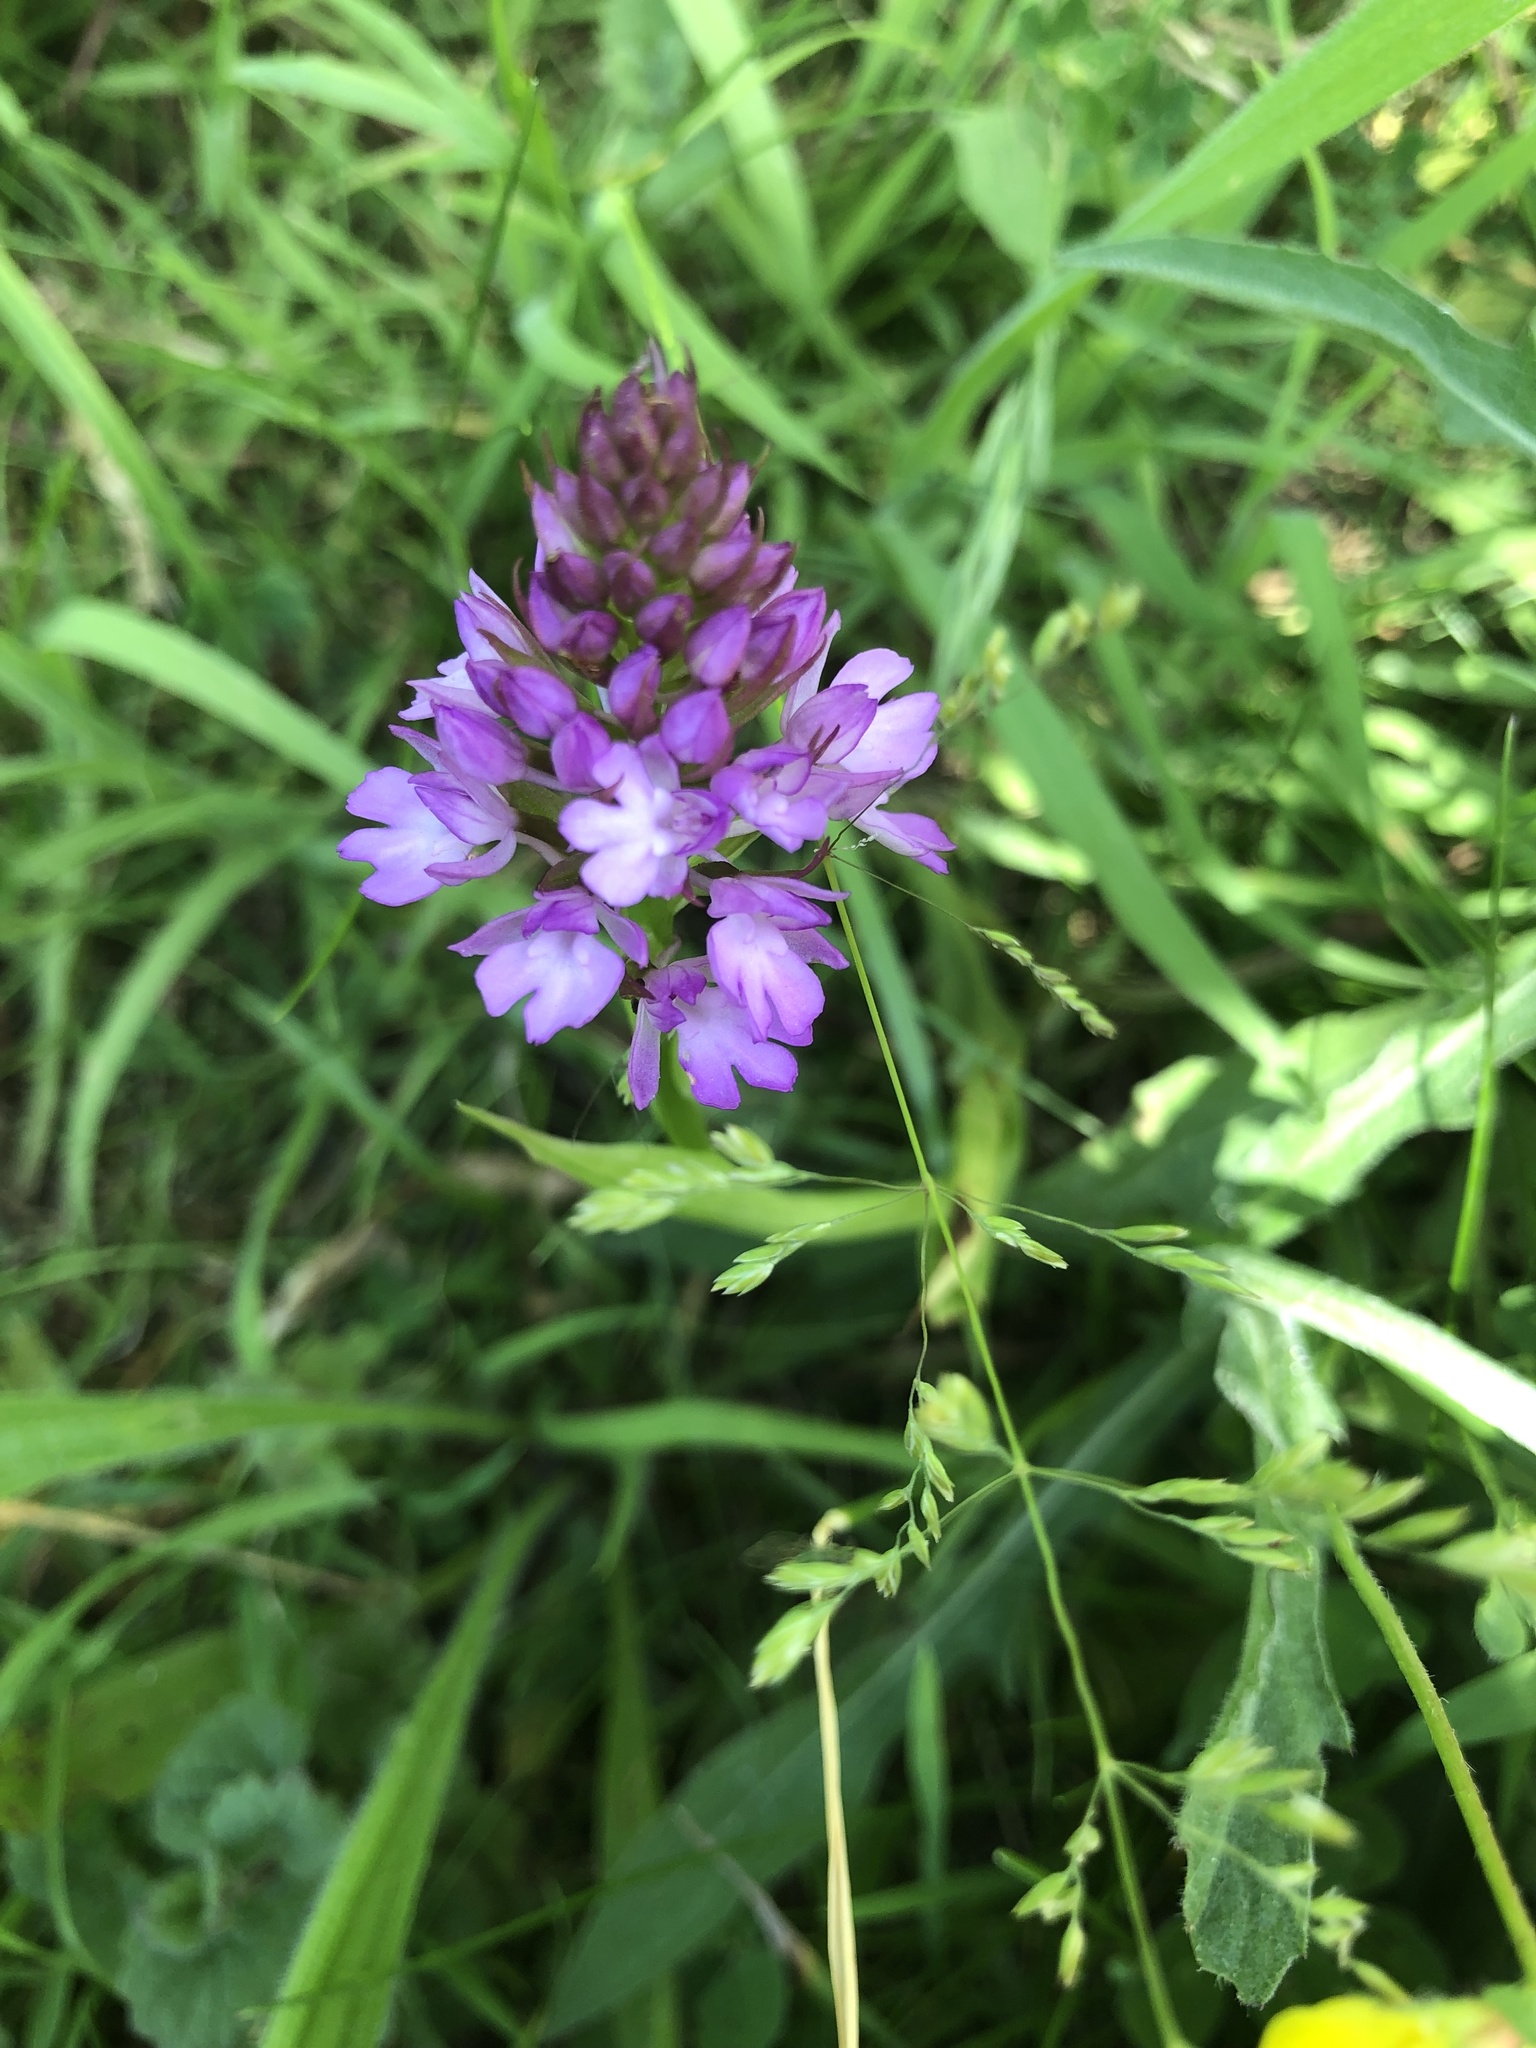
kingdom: Plantae
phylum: Tracheophyta
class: Liliopsida
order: Asparagales
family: Orchidaceae
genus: Anacamptis
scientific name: Anacamptis pyramidalis
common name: Pyramidal orchid
